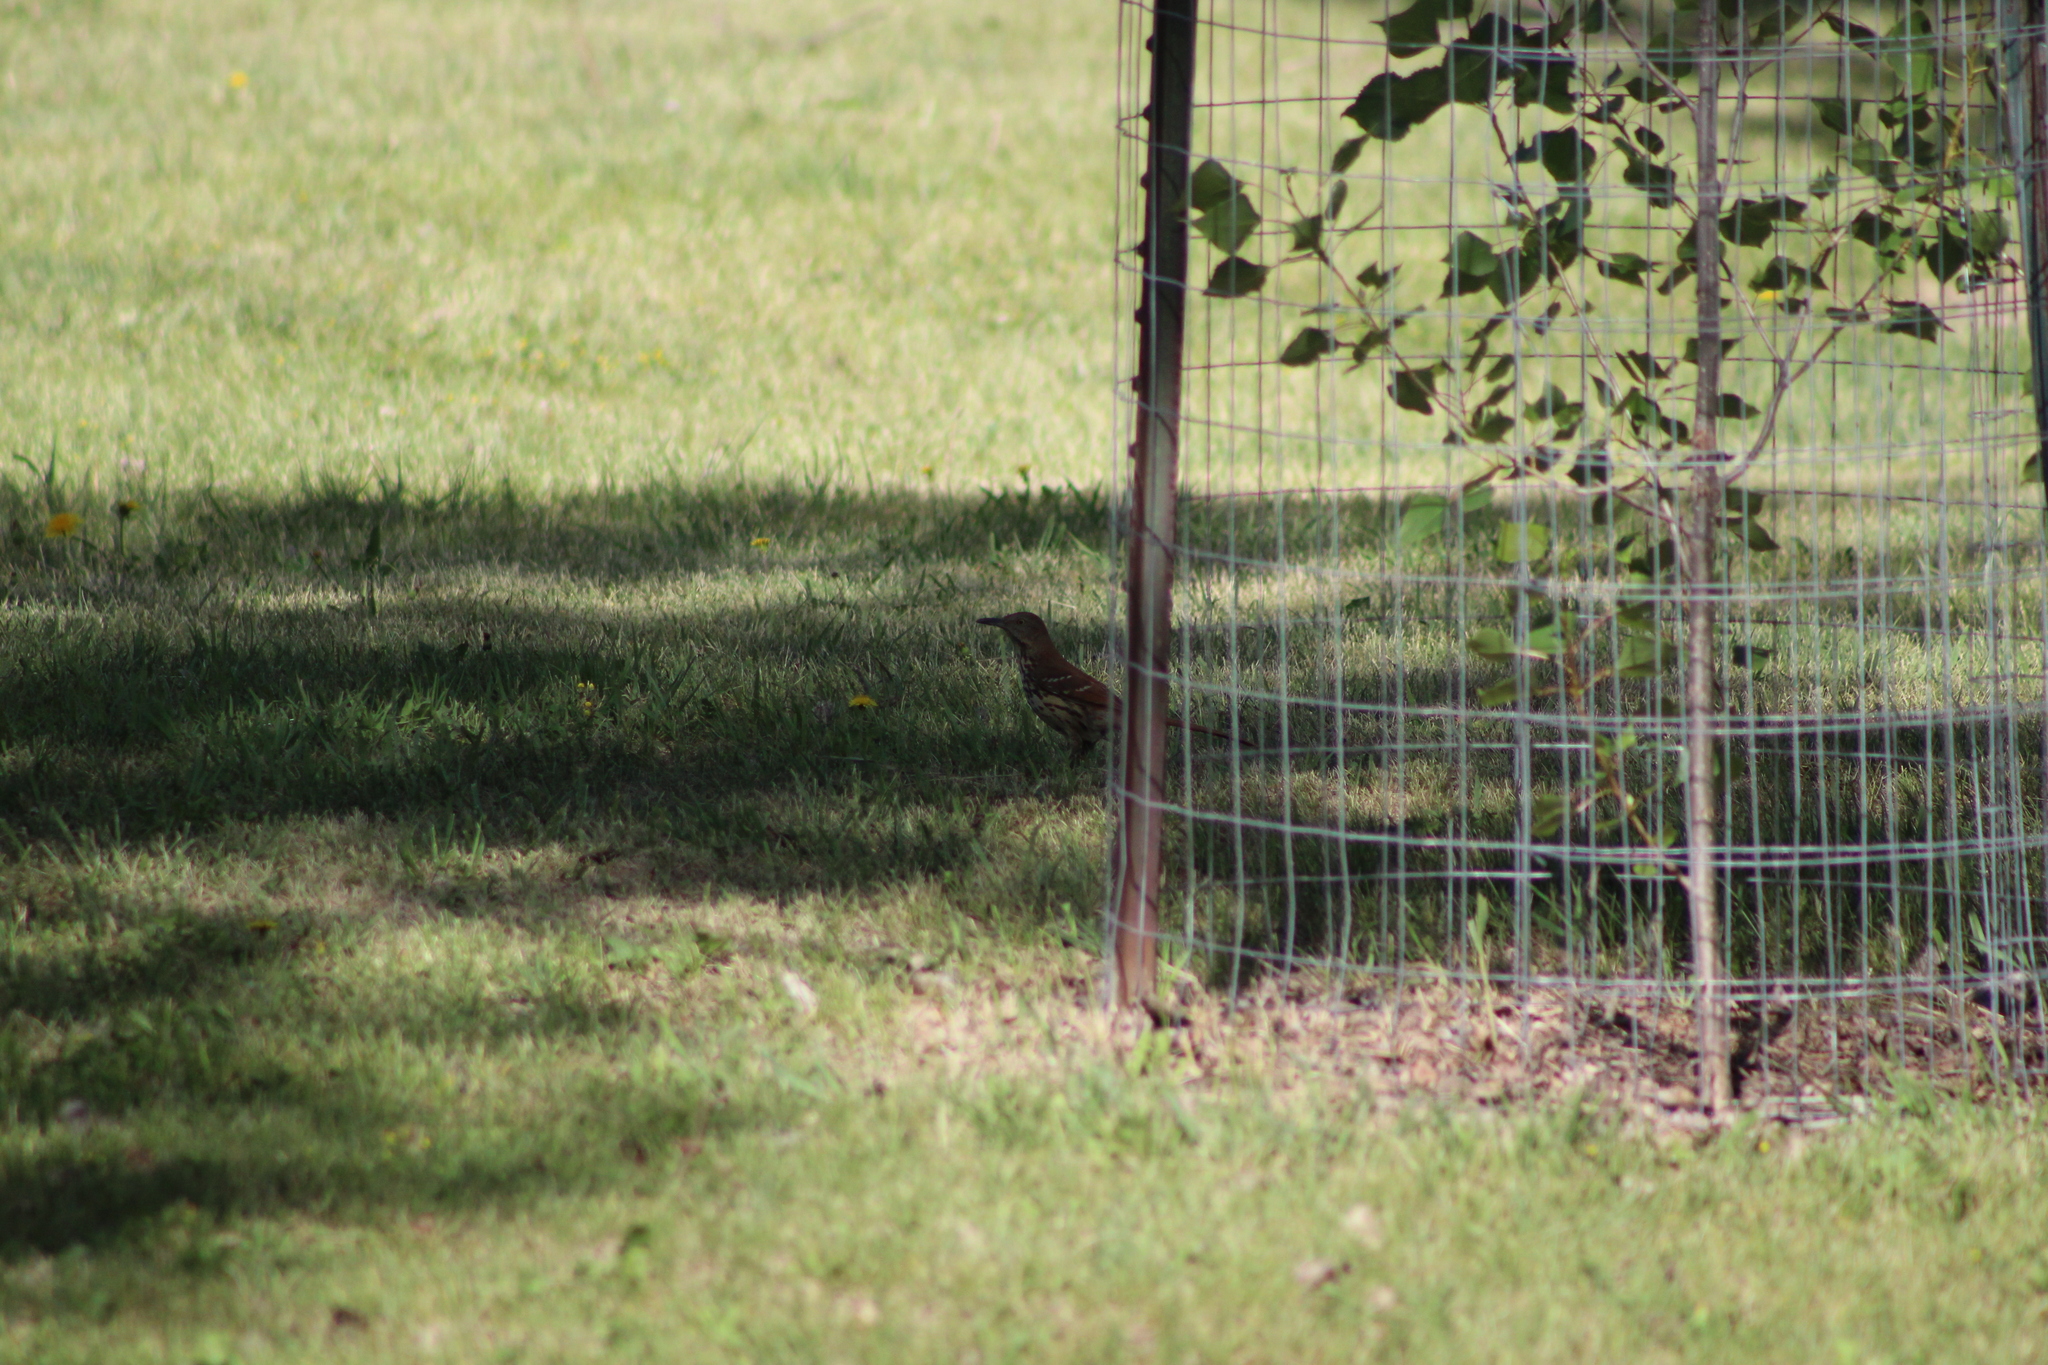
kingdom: Animalia
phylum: Chordata
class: Aves
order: Passeriformes
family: Mimidae
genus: Toxostoma
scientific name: Toxostoma rufum
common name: Brown thrasher
